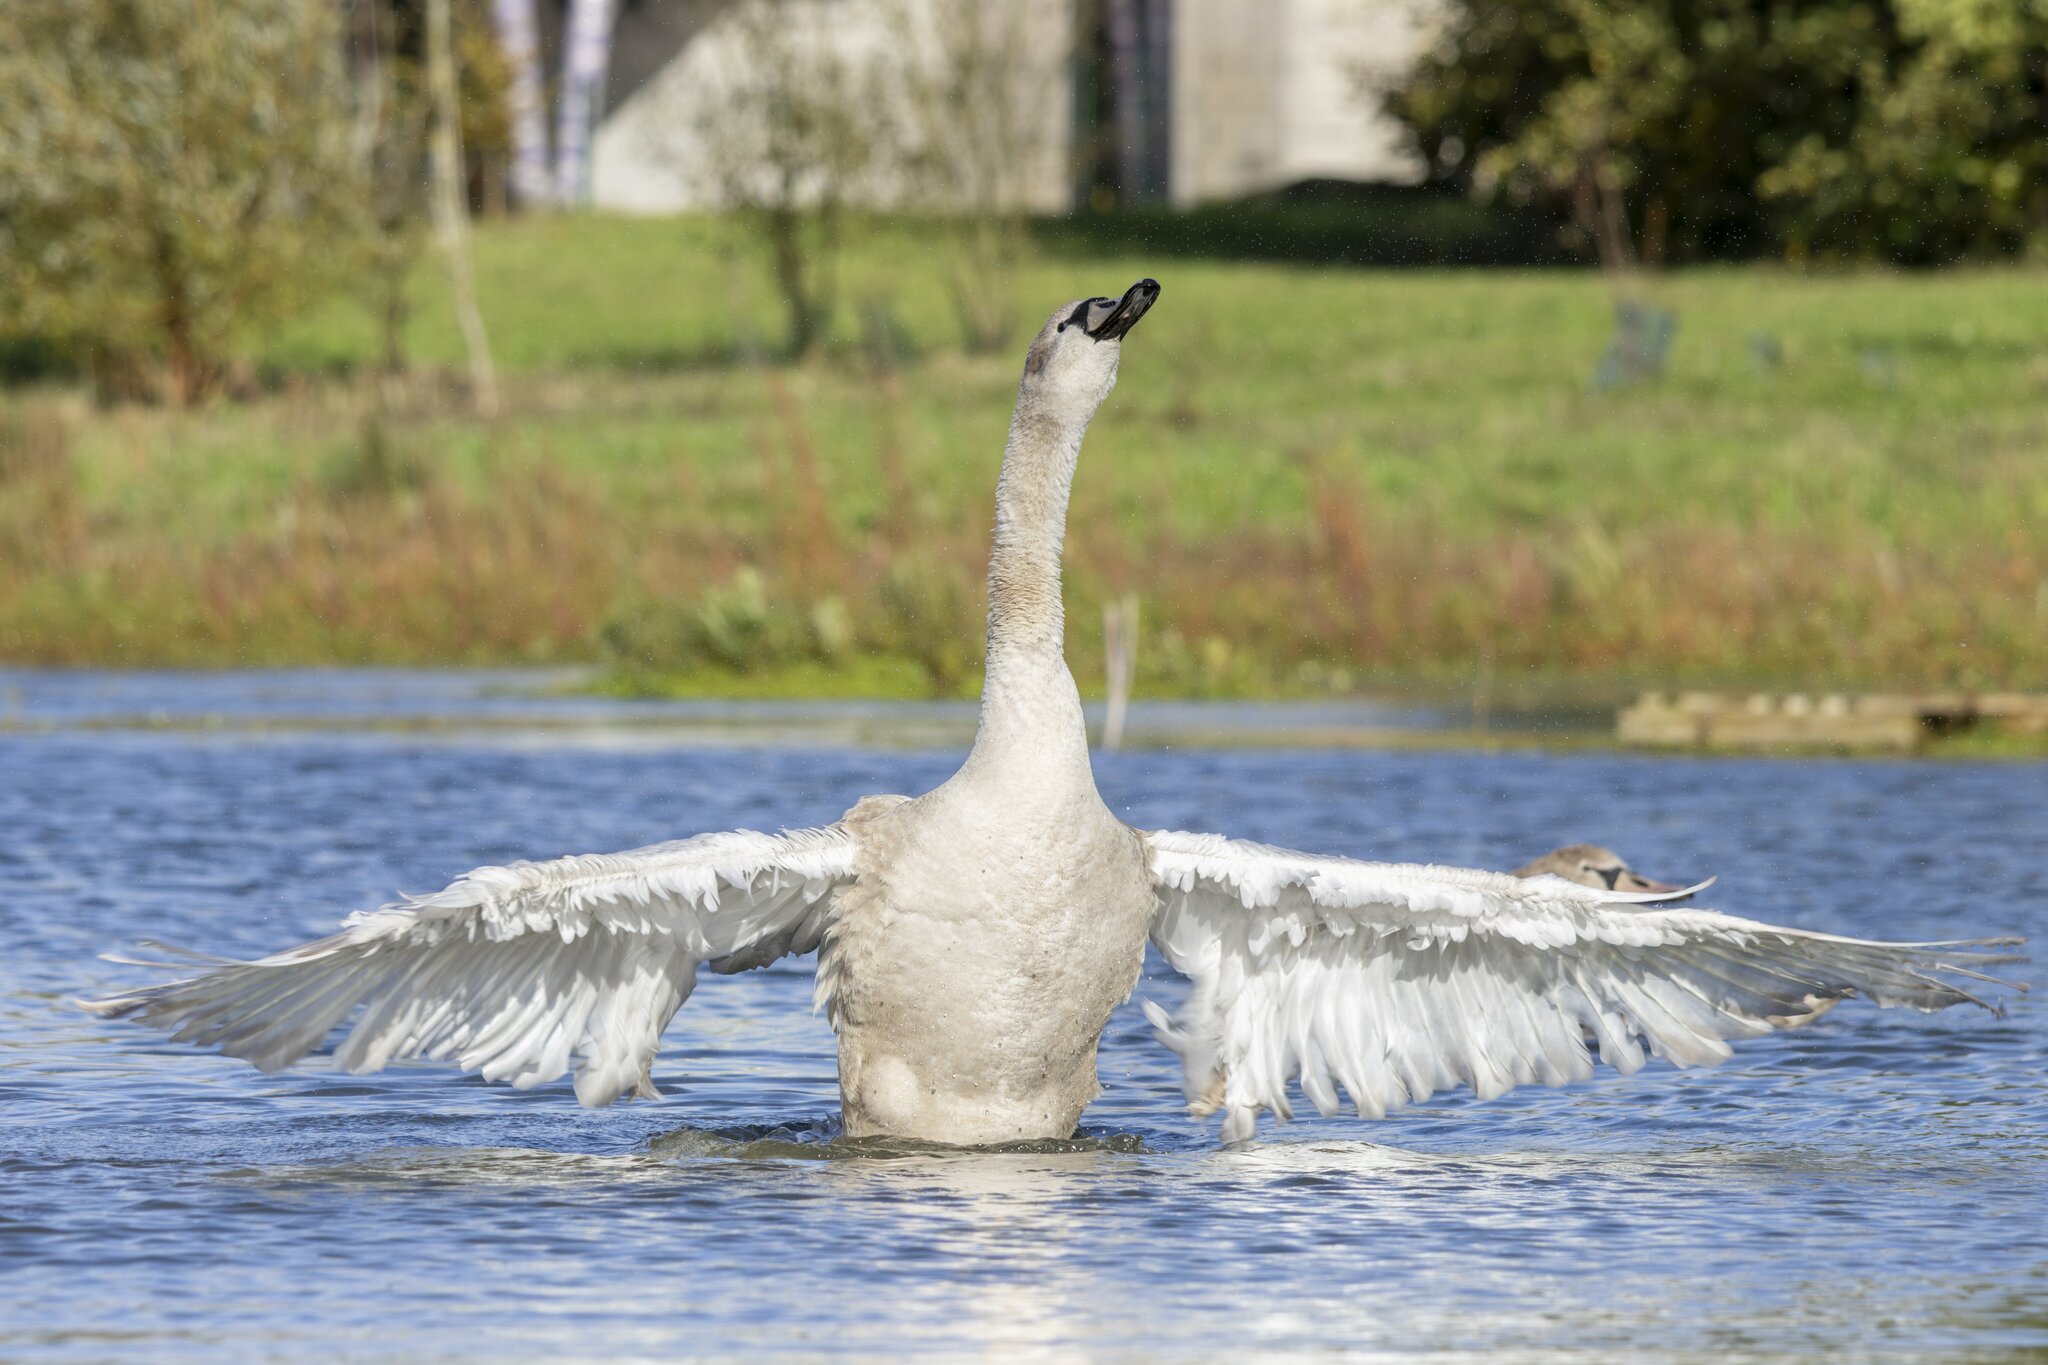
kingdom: Animalia
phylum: Chordata
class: Aves
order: Anseriformes
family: Anatidae
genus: Cygnus
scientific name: Cygnus olor
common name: Mute swan
